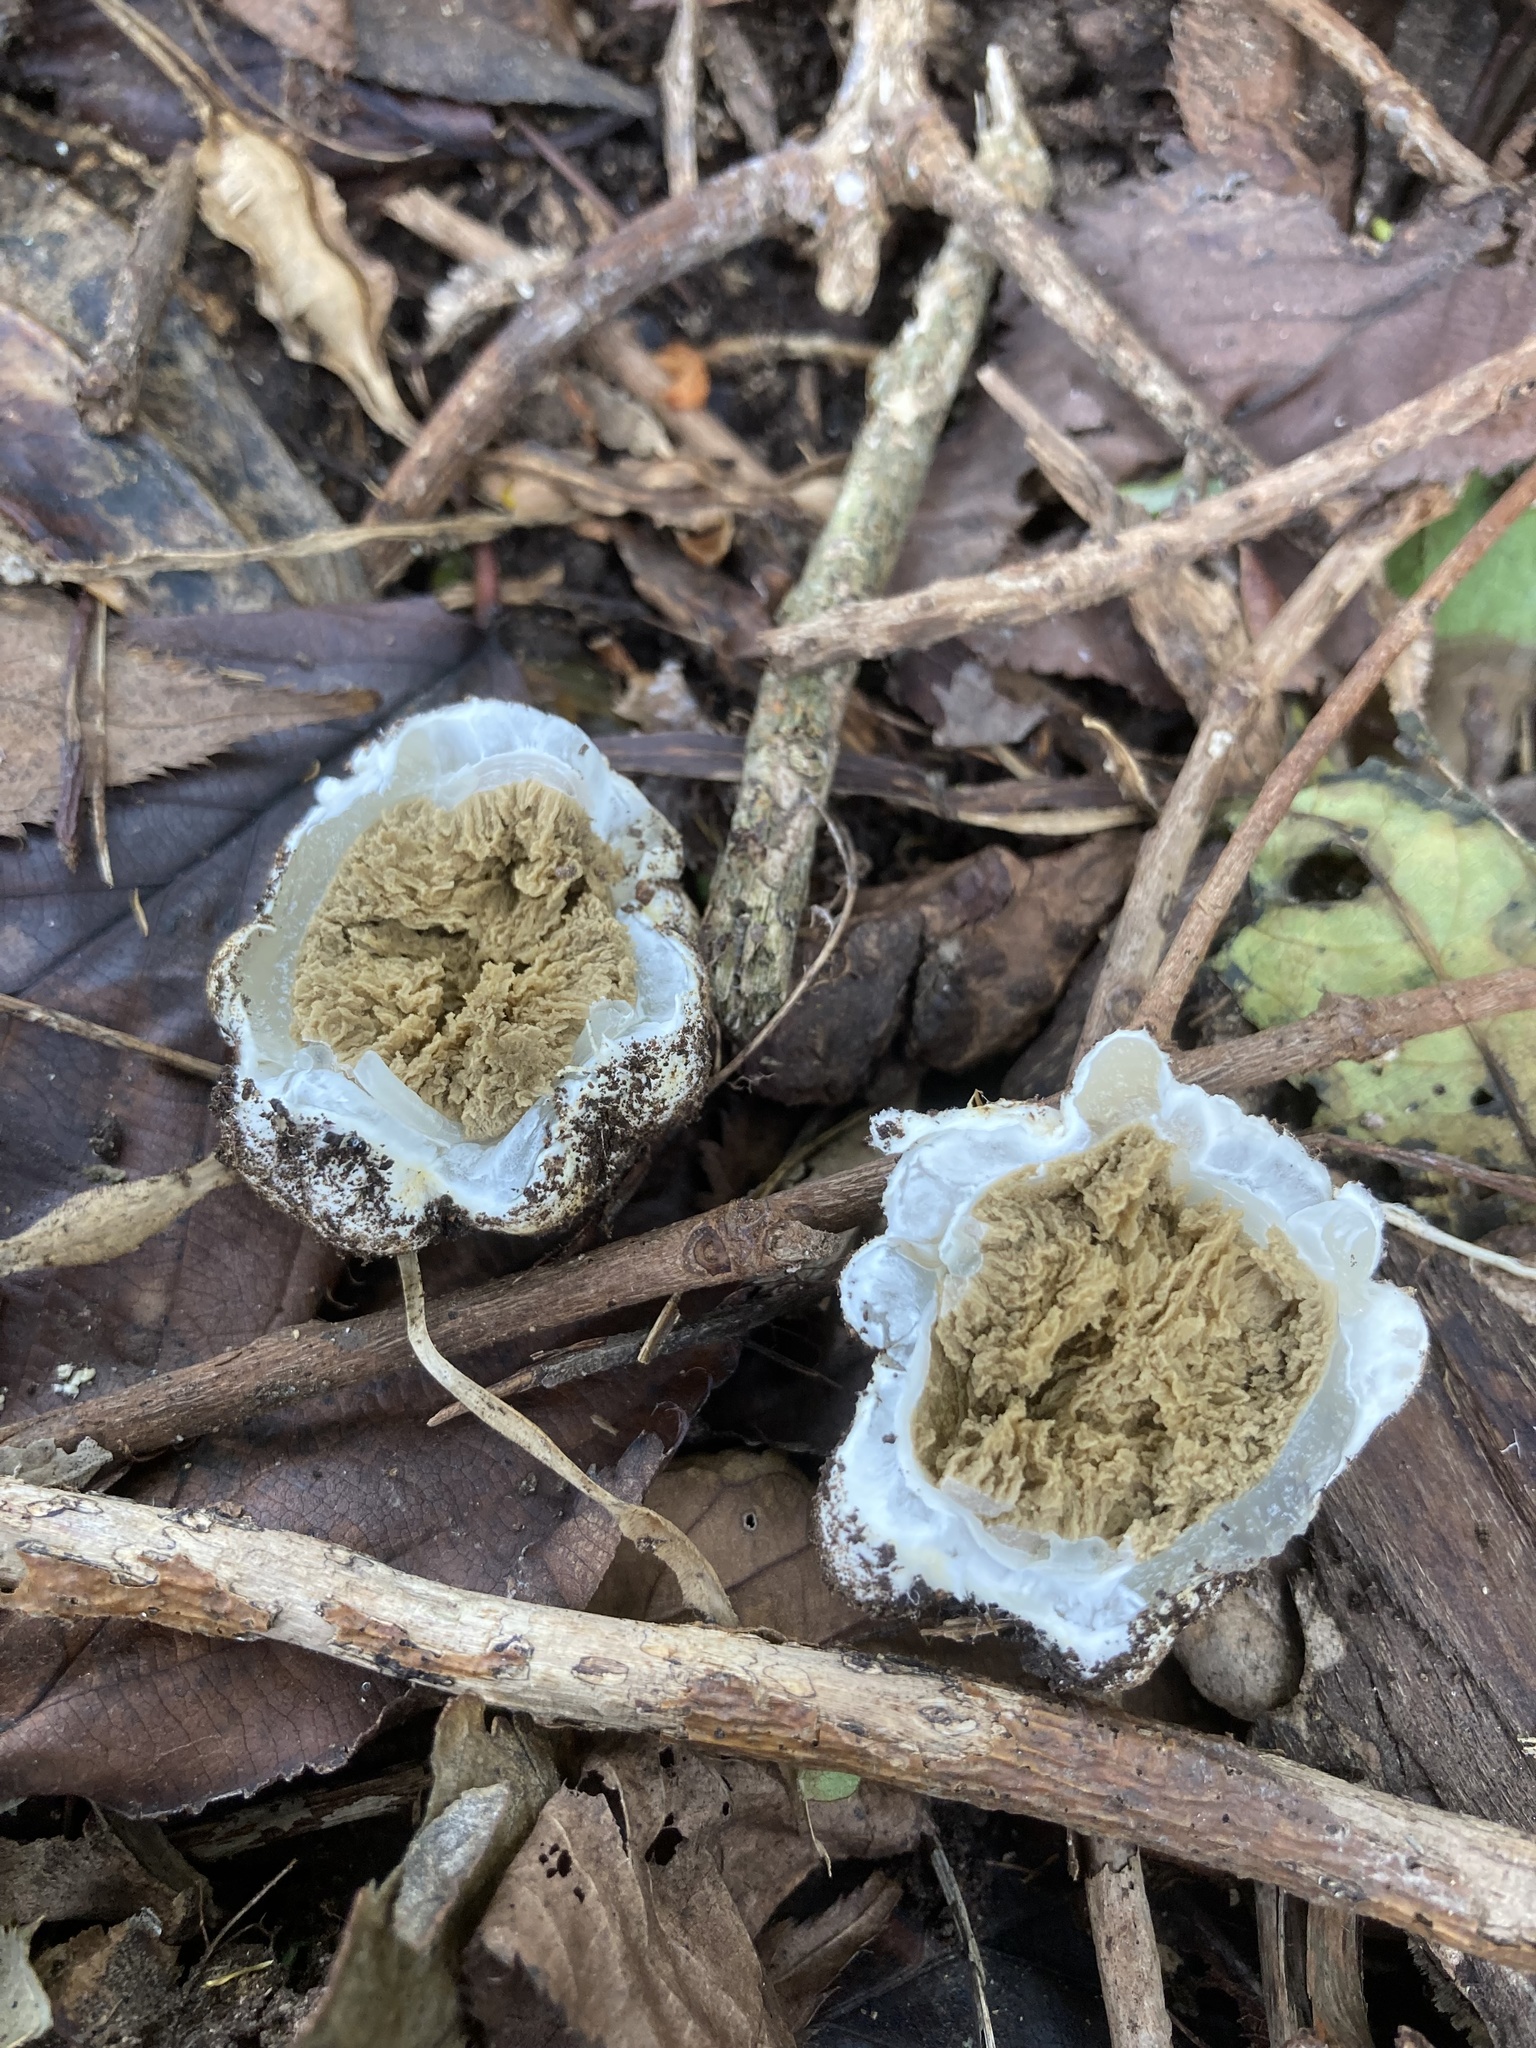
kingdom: Fungi
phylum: Basidiomycota
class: Agaricomycetes
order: Phallales
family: Phallaceae
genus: Ileodictyon
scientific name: Ileodictyon cibarium
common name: Basket fungus
